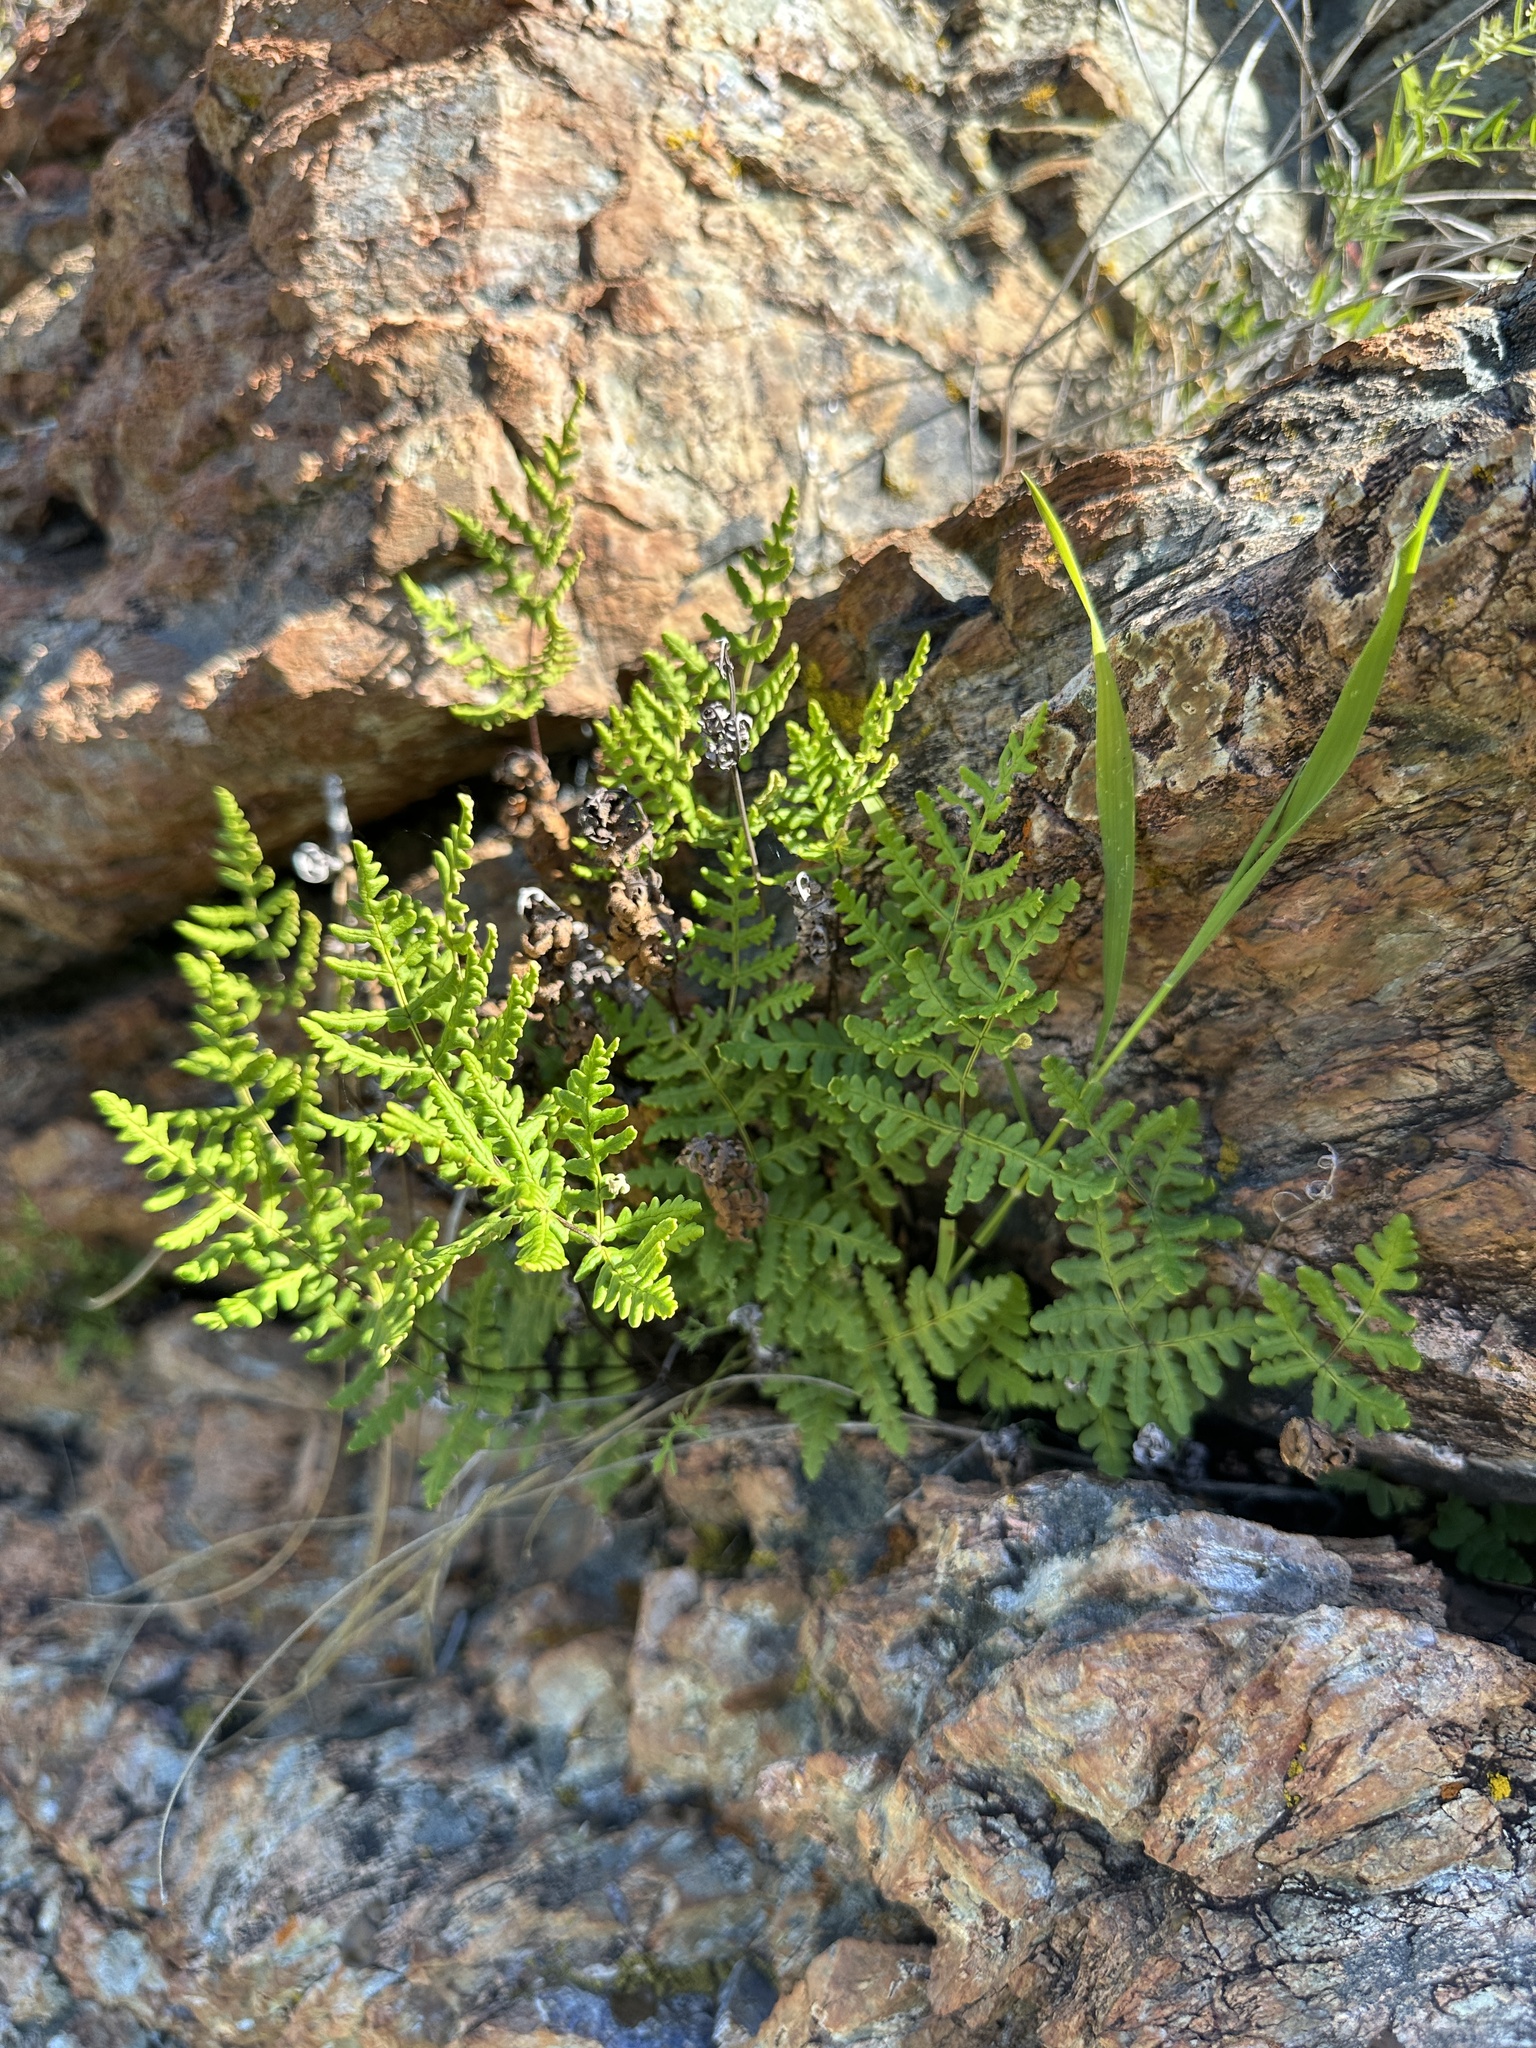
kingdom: Plantae
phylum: Tracheophyta
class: Polypodiopsida
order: Polypodiales
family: Pteridaceae
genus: Pentagramma
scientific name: Pentagramma triangularis
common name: Gold fern
